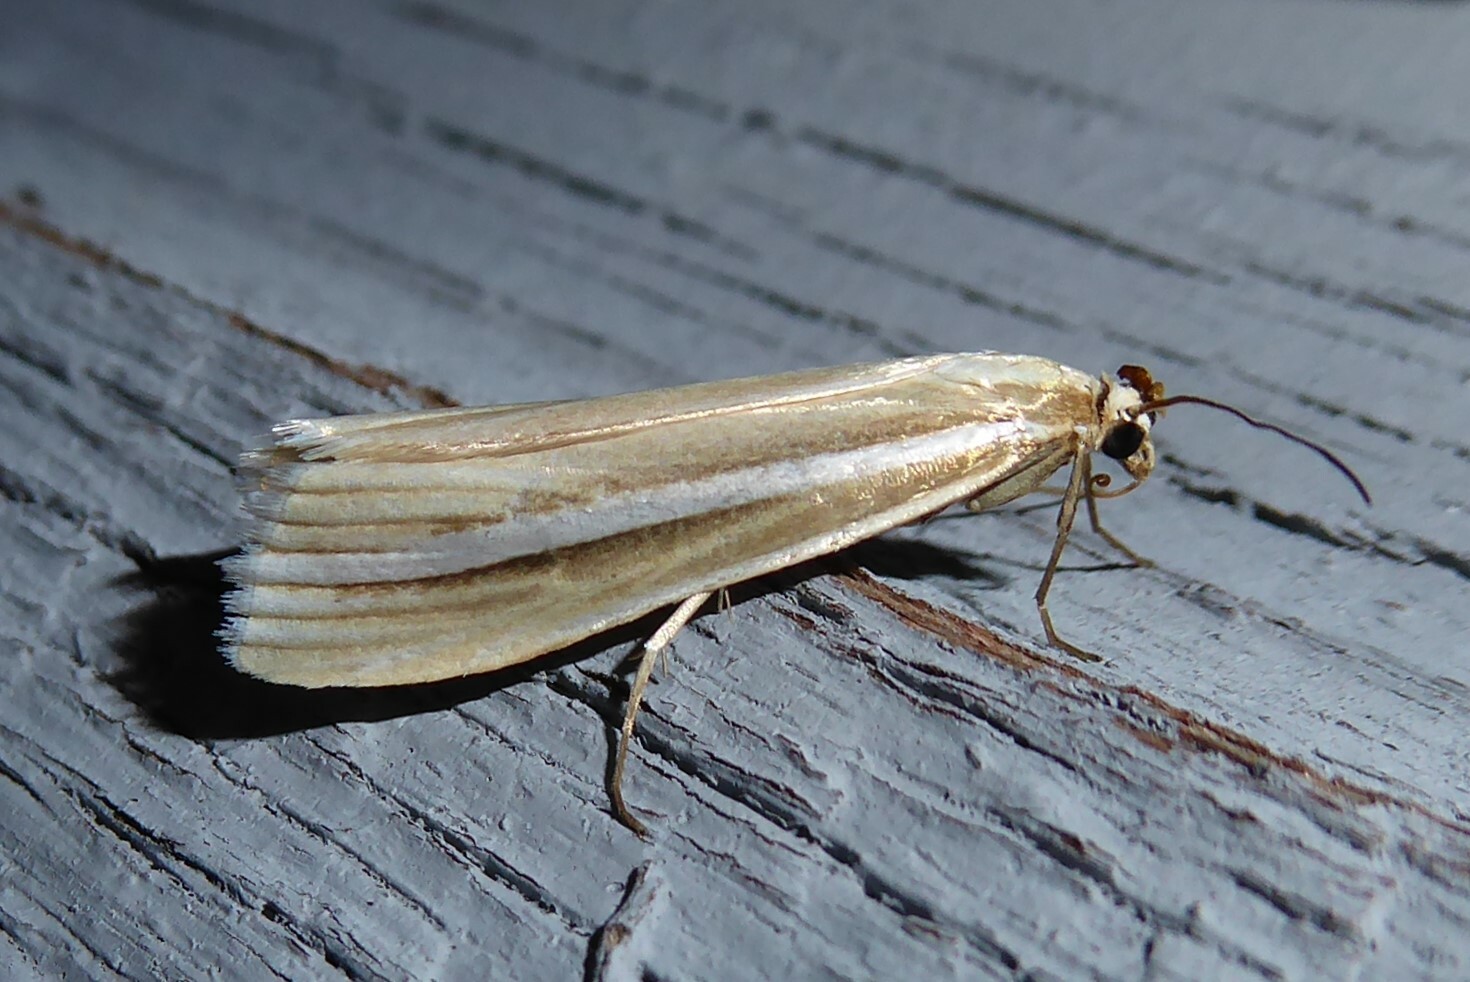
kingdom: Animalia
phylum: Arthropoda
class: Insecta
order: Lepidoptera
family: Crambidae
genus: Orocrambus
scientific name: Orocrambus lewisi
